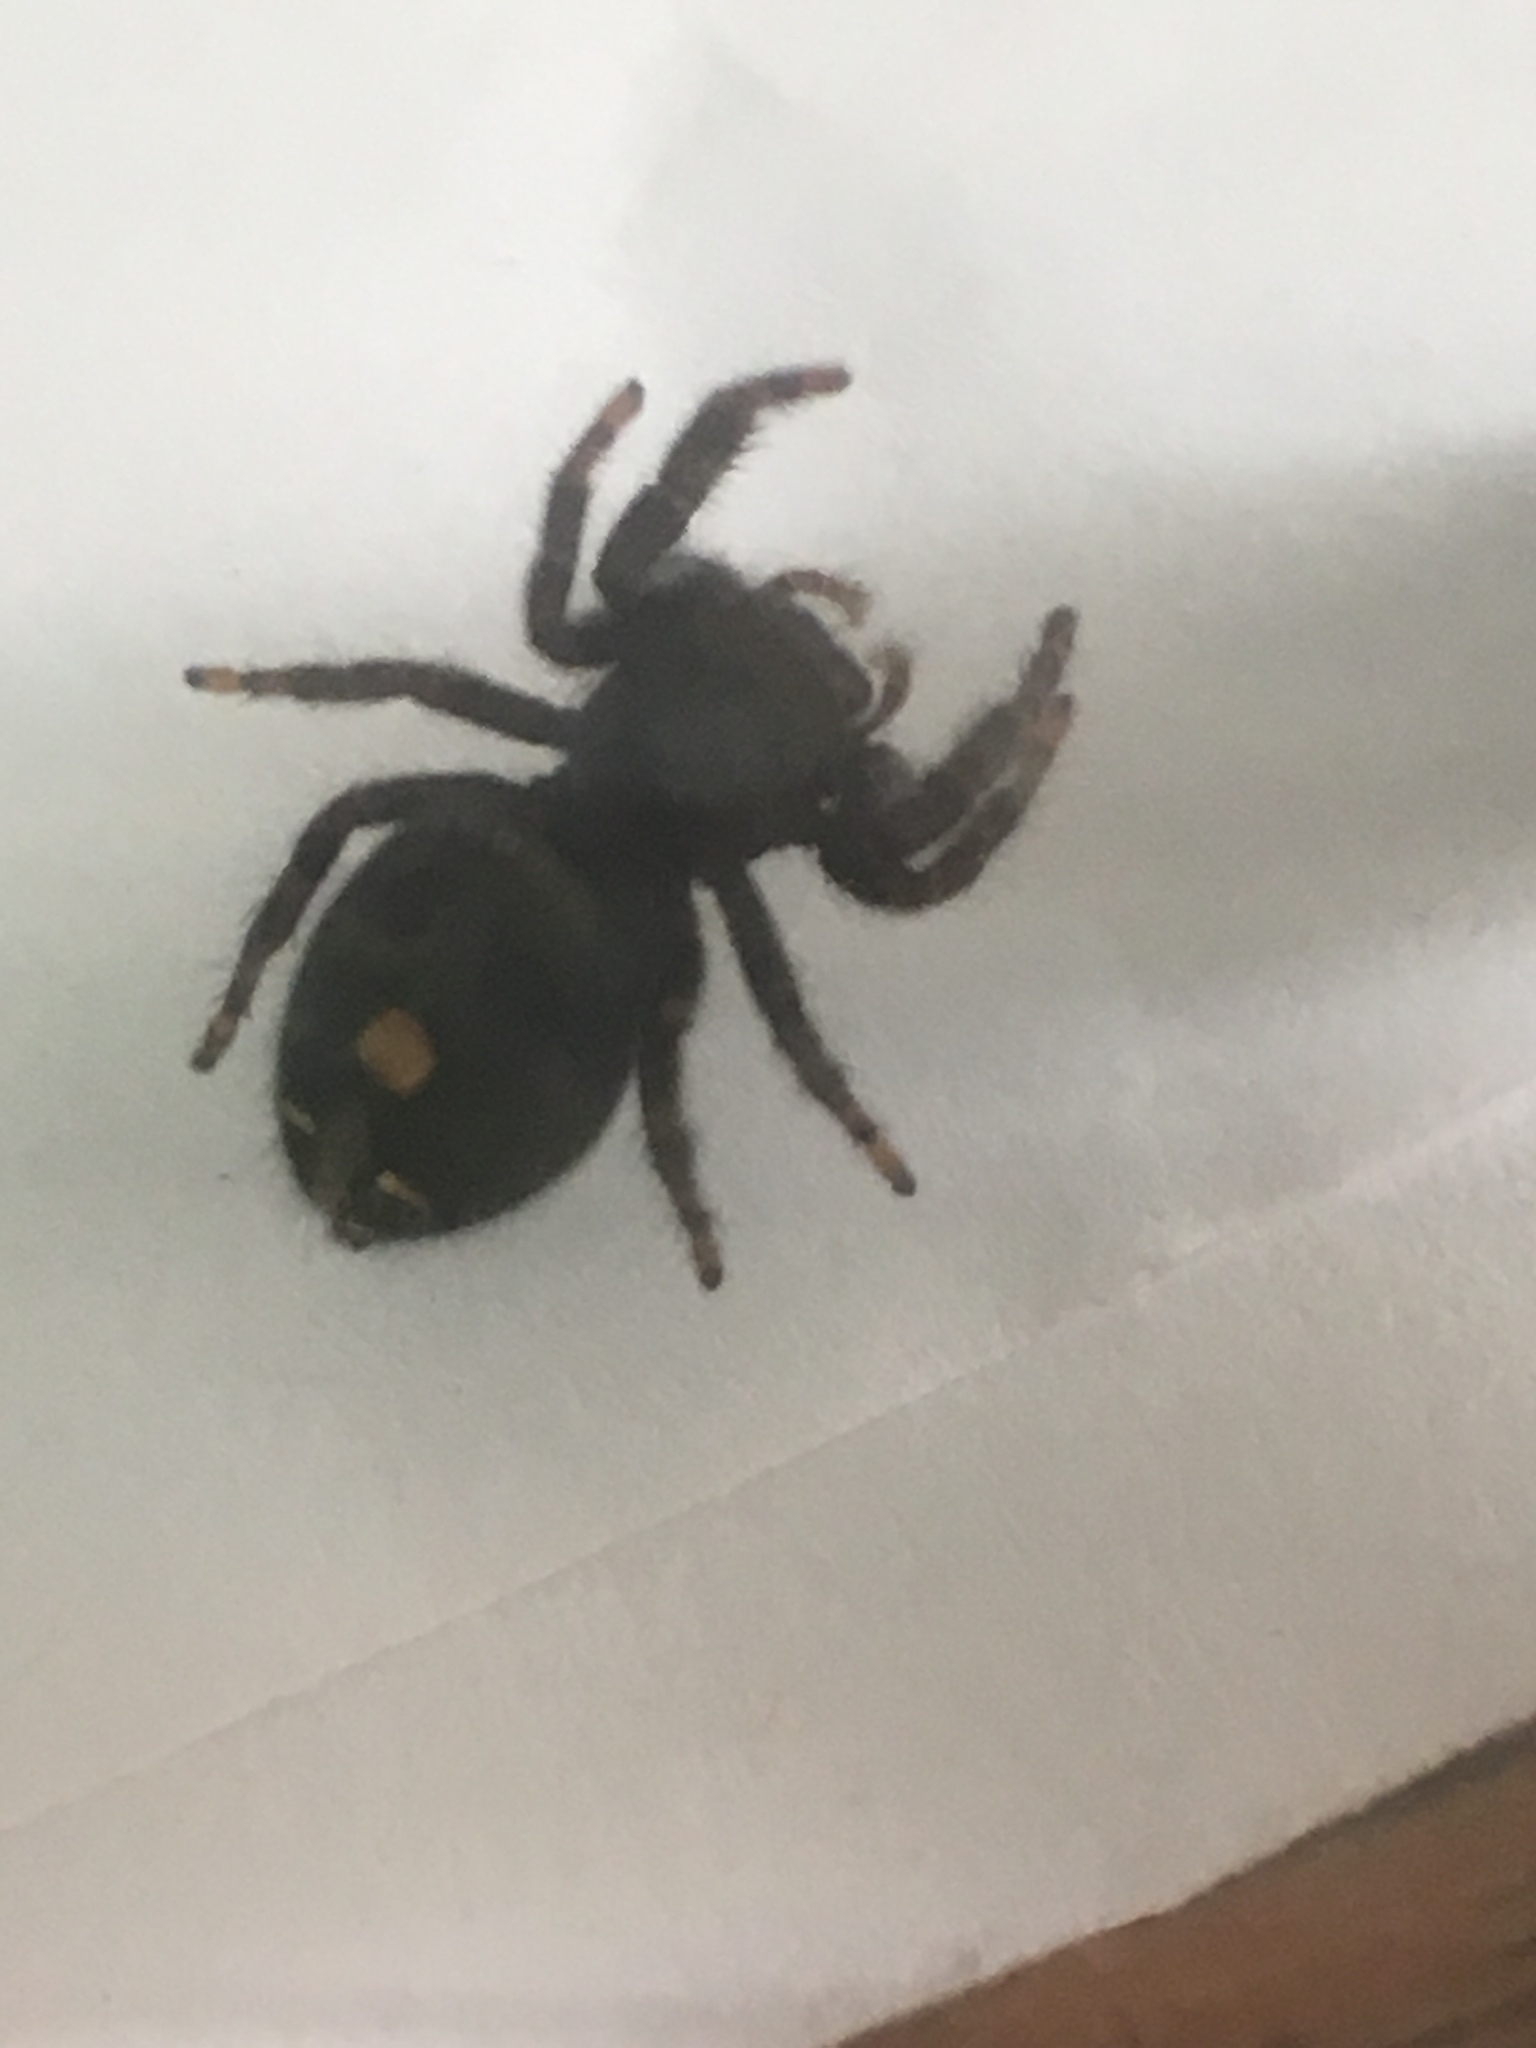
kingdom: Animalia
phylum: Arthropoda
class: Arachnida
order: Araneae
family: Salticidae
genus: Phidippus
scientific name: Phidippus audax
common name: Bold jumper
